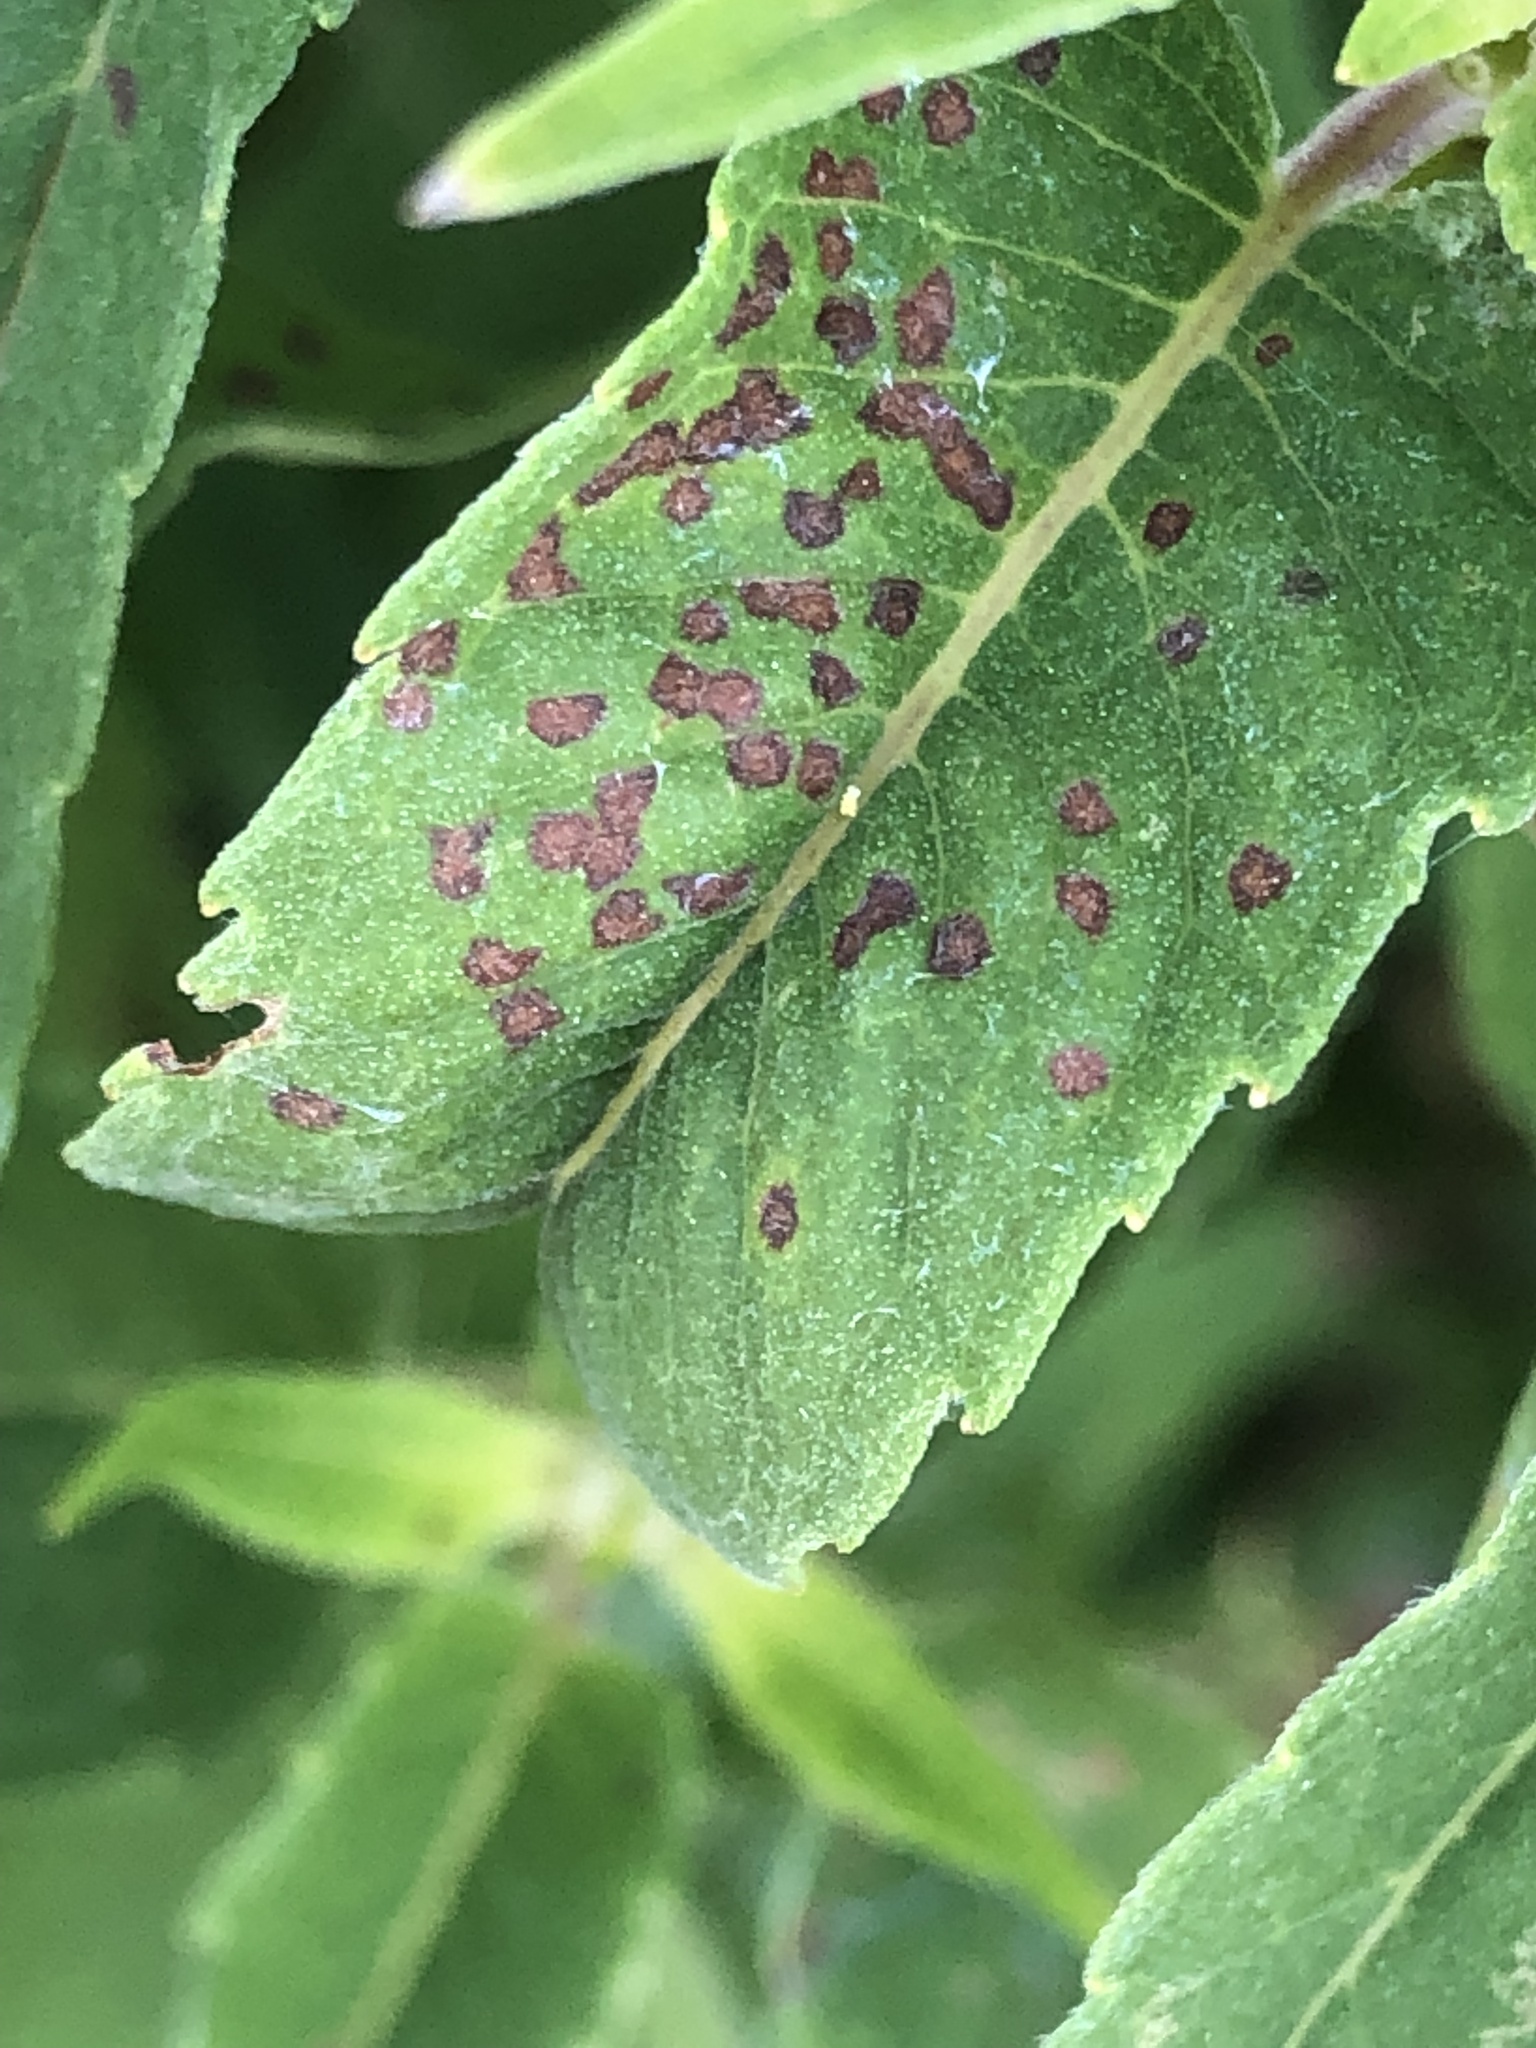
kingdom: Animalia
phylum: Arthropoda
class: Insecta
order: Hemiptera
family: Miridae
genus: Poecilocapsus
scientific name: Poecilocapsus lineatus
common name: Four-lined plant bug
